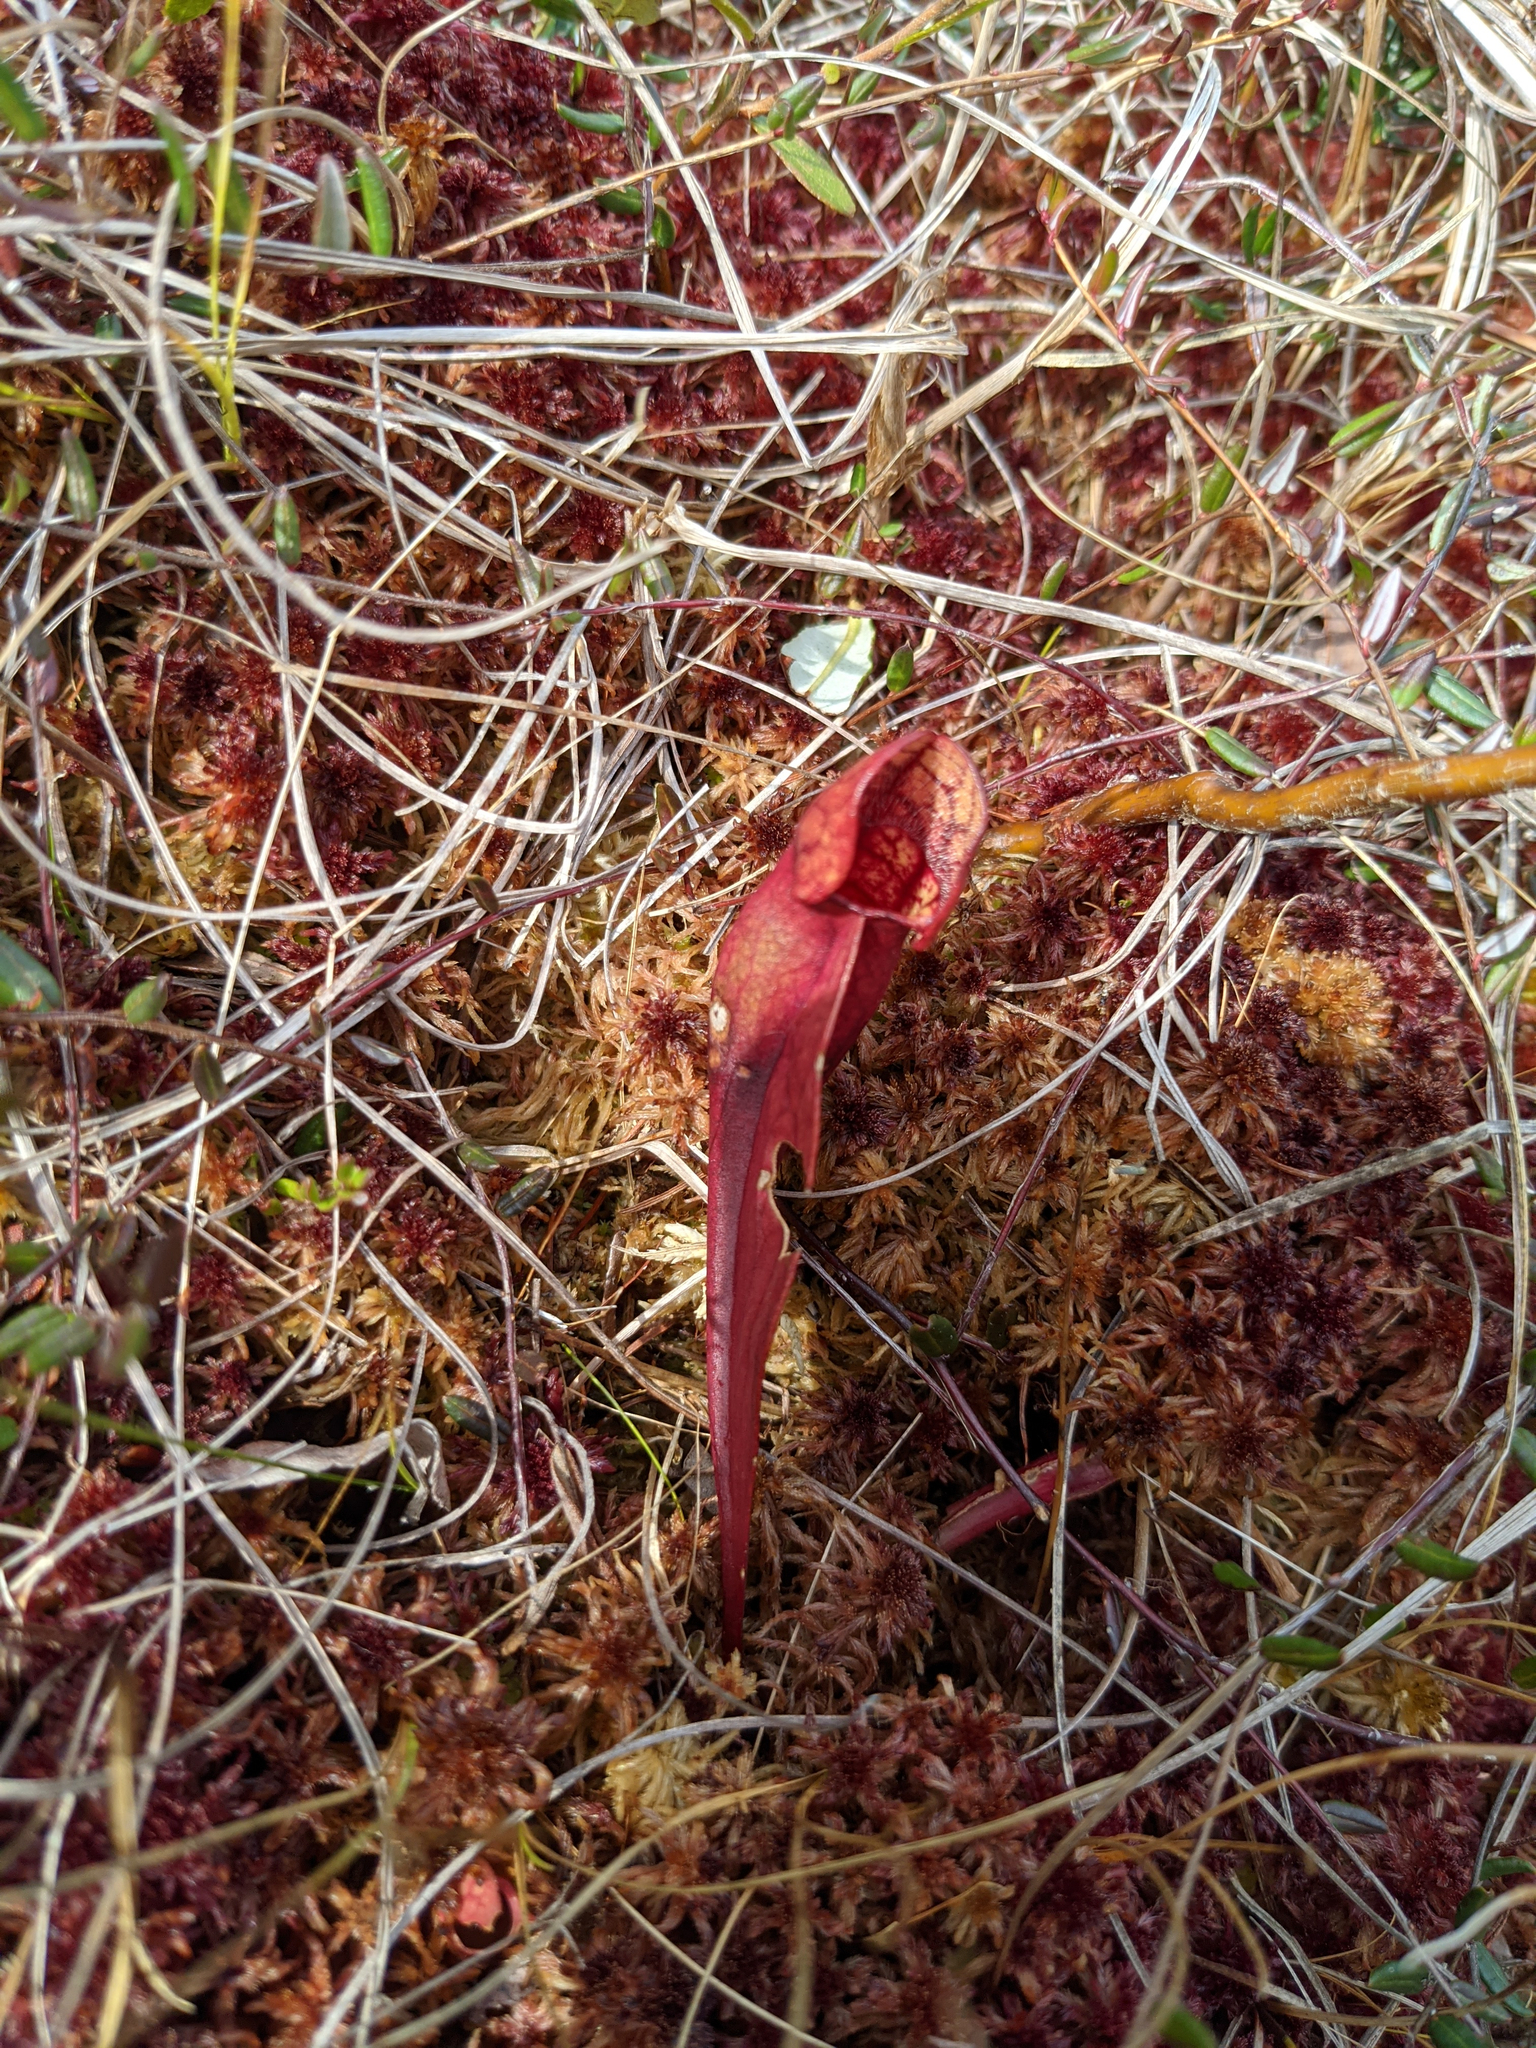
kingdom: Plantae
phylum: Tracheophyta
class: Magnoliopsida
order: Ericales
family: Sarraceniaceae
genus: Sarracenia
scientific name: Sarracenia purpurea
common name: Pitcherplant
